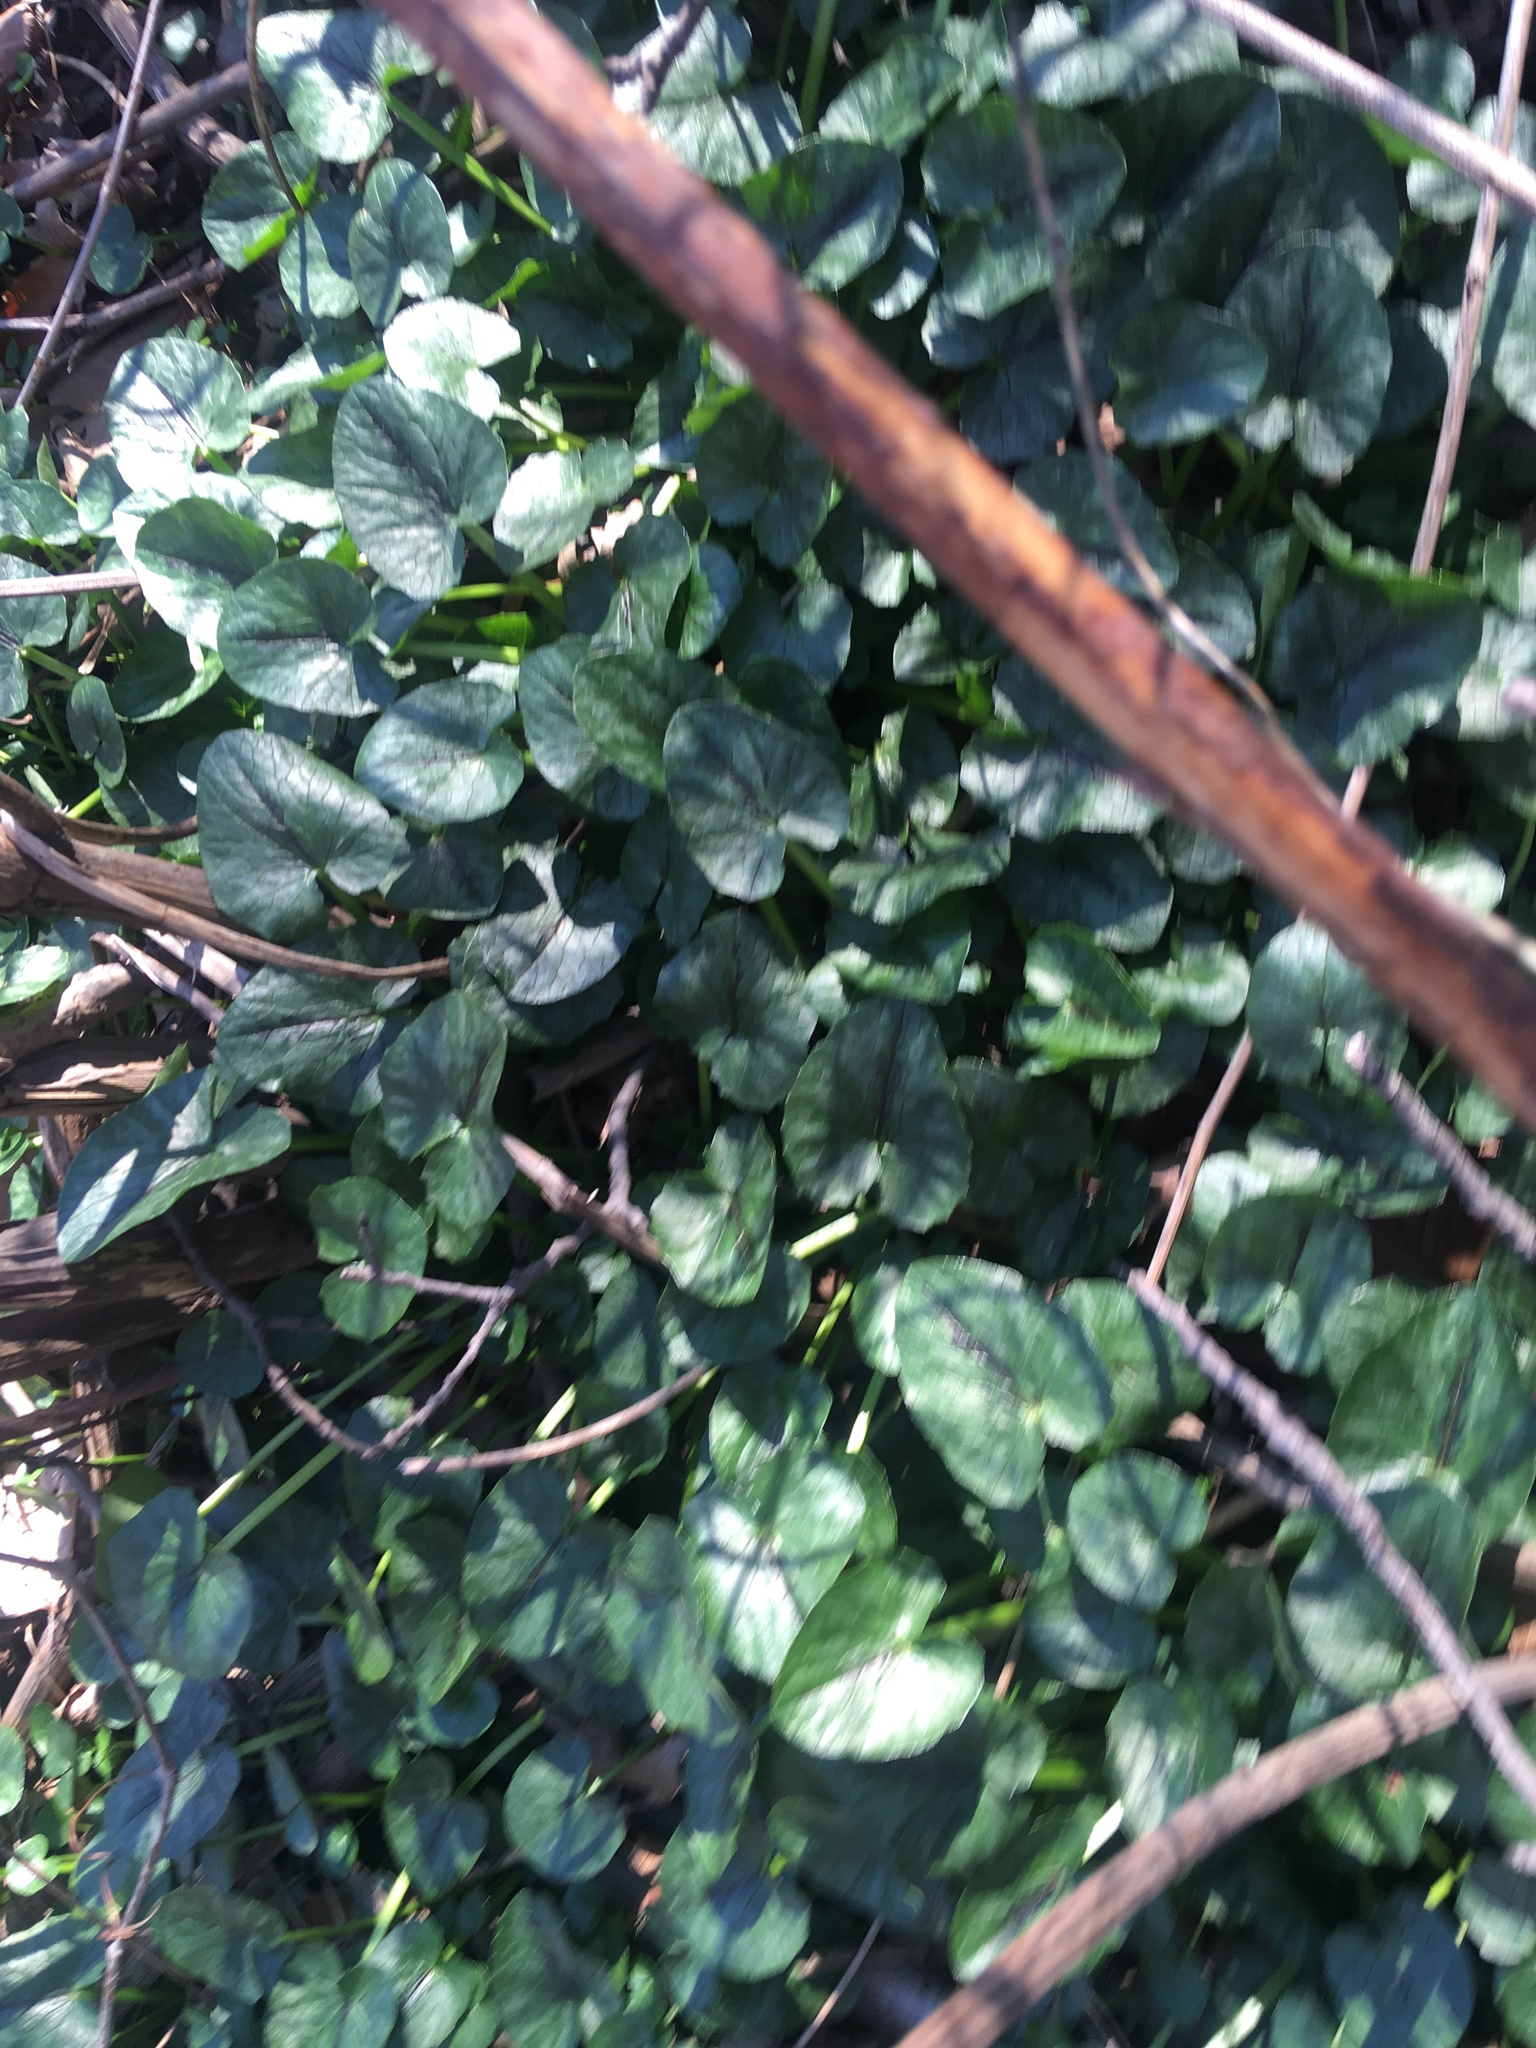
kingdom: Plantae
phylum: Tracheophyta
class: Magnoliopsida
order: Ranunculales
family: Ranunculaceae
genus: Ficaria
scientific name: Ficaria verna
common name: Lesser celandine
